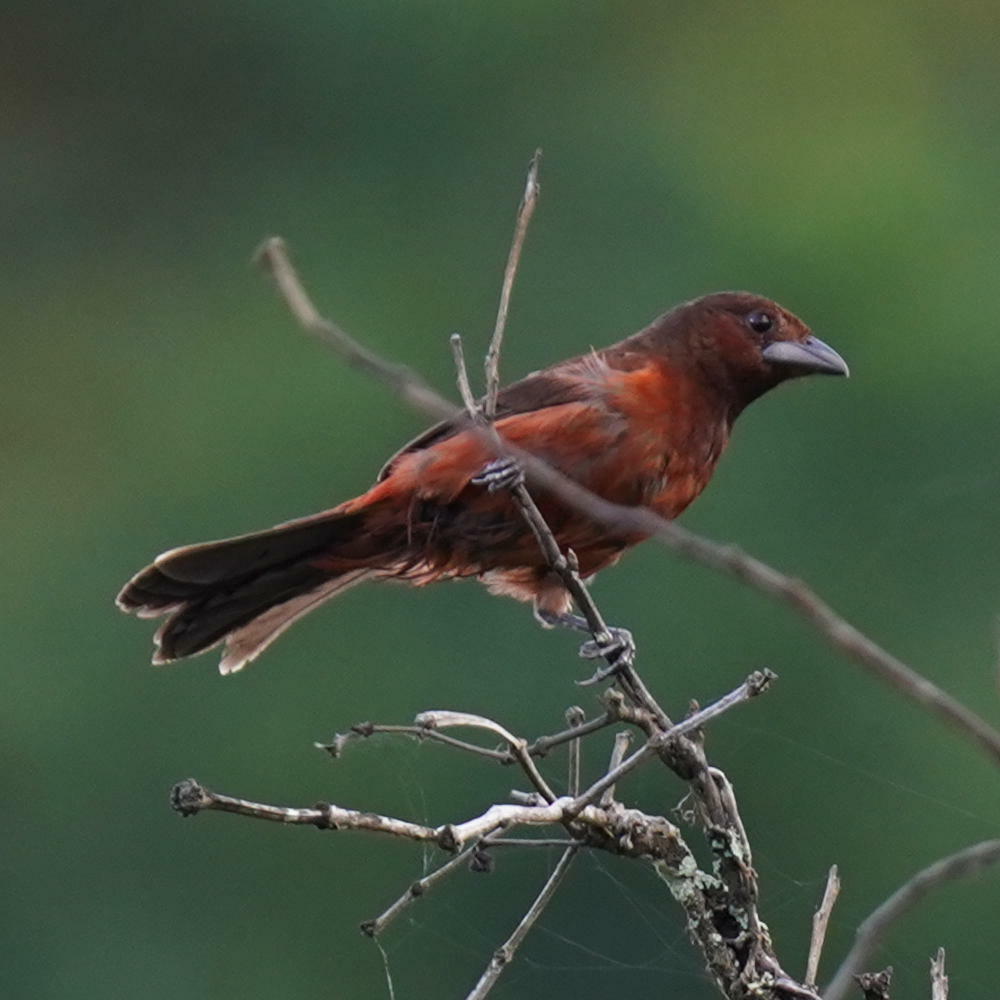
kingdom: Animalia
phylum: Chordata
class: Aves
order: Passeriformes
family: Thraupidae
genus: Ramphocelus
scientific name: Ramphocelus dimidiatus
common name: Crimson-backed tanager
